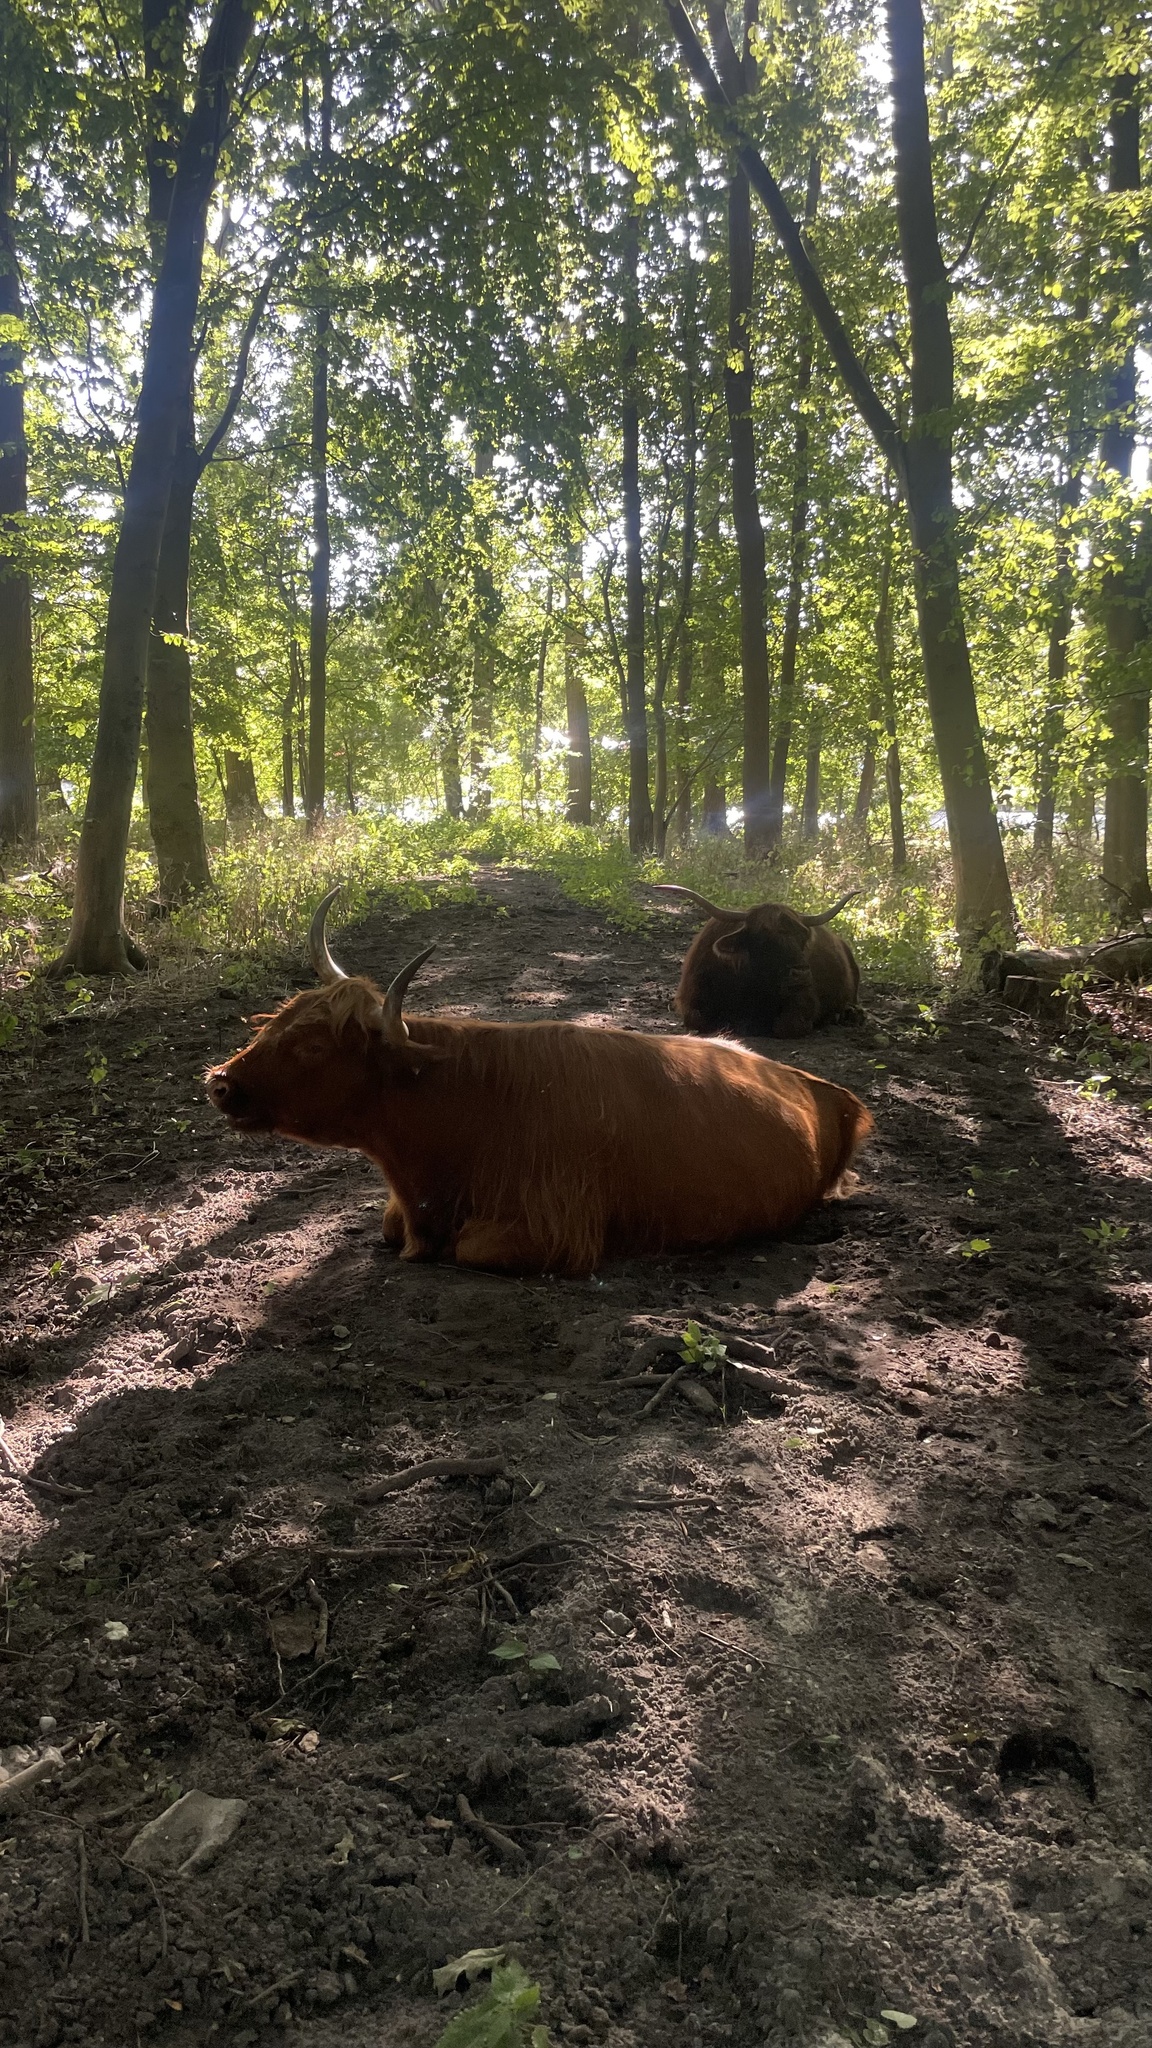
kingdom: Animalia
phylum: Chordata
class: Mammalia
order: Artiodactyla
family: Bovidae
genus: Bos
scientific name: Bos taurus
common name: Domesticated cattle
